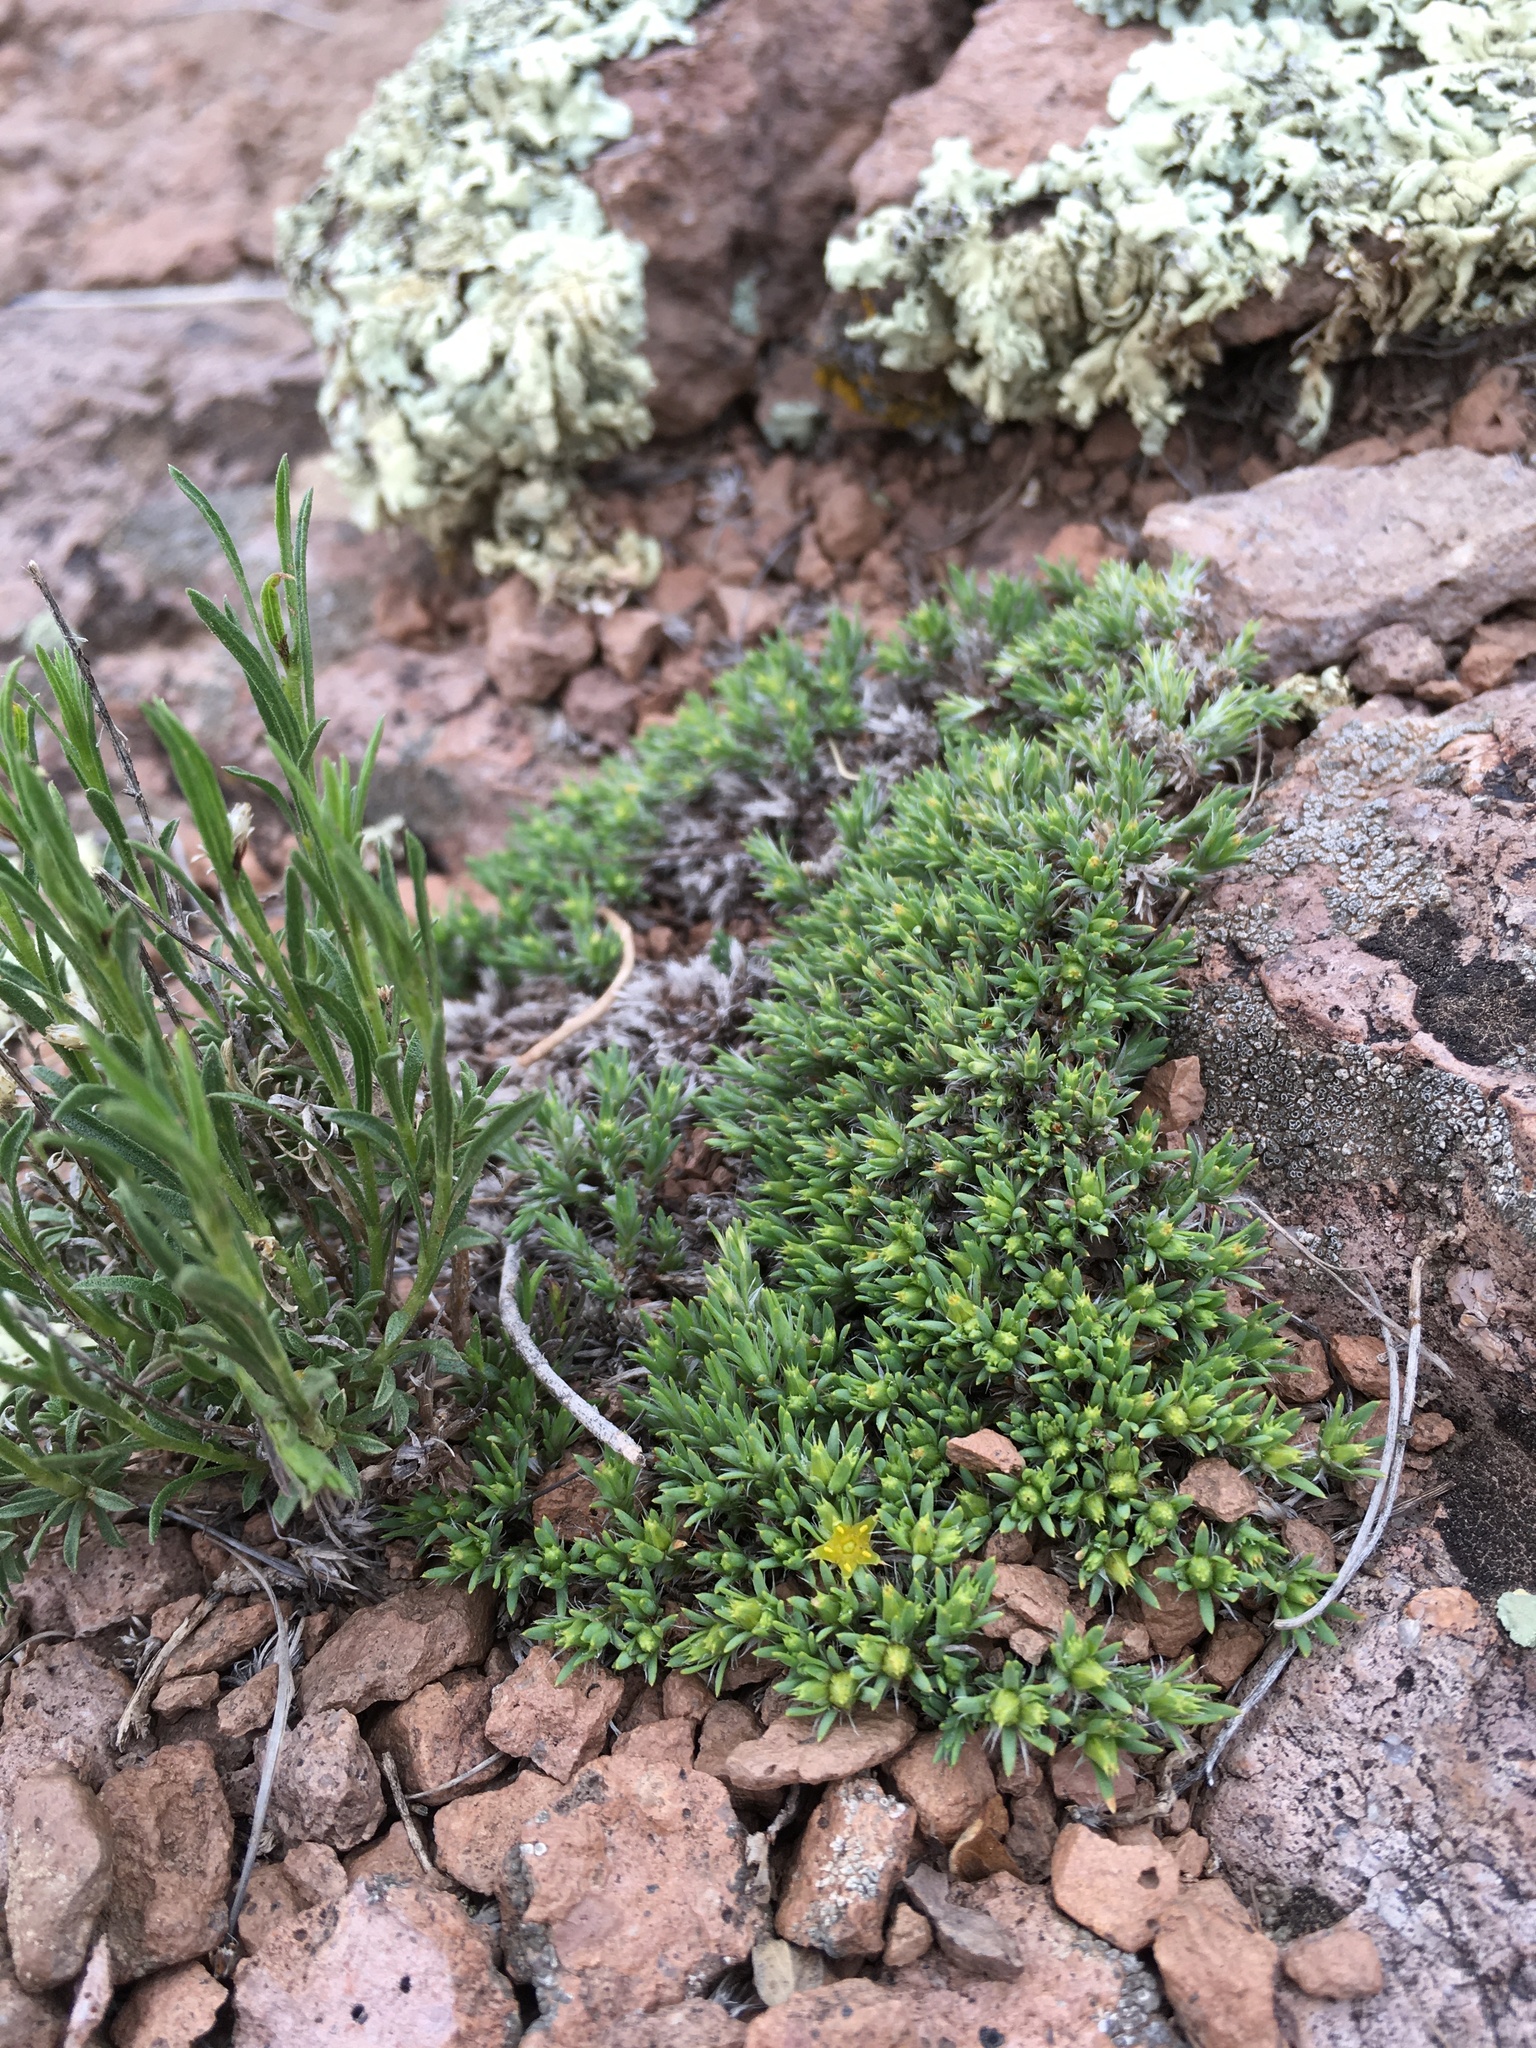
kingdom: Plantae
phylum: Tracheophyta
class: Magnoliopsida
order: Caryophyllales
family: Caryophyllaceae
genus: Paronychia
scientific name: Paronychia sessiliflora
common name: Creeping nailwort
